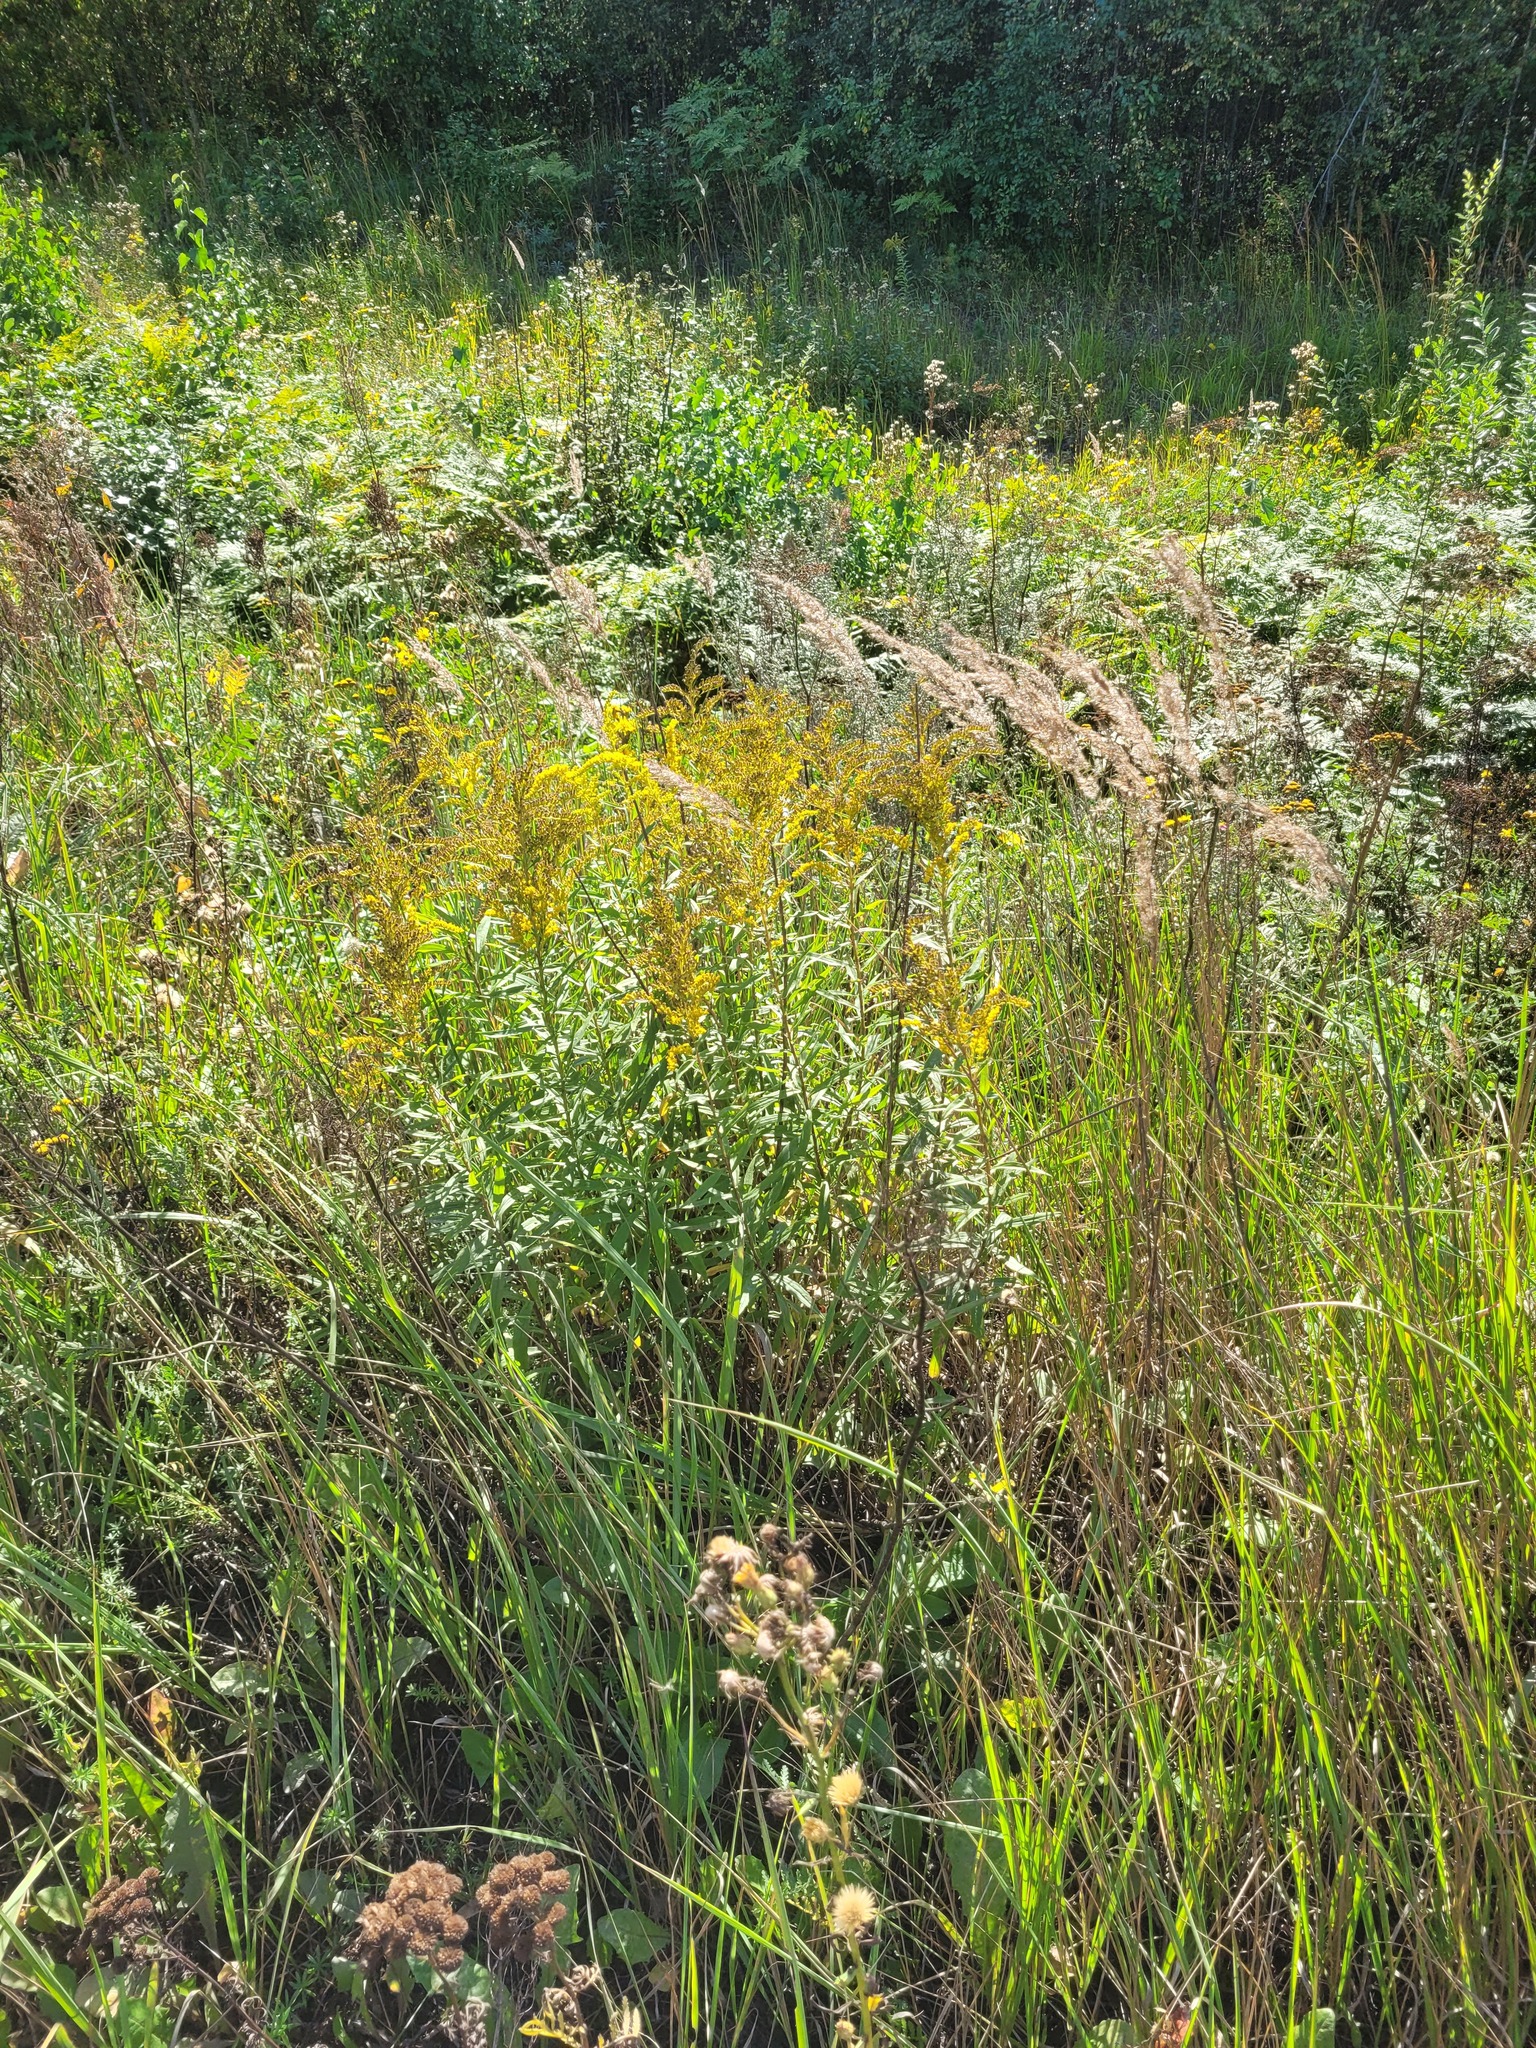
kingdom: Plantae
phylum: Tracheophyta
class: Magnoliopsida
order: Asterales
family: Asteraceae
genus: Solidago
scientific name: Solidago canadensis
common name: Canada goldenrod
